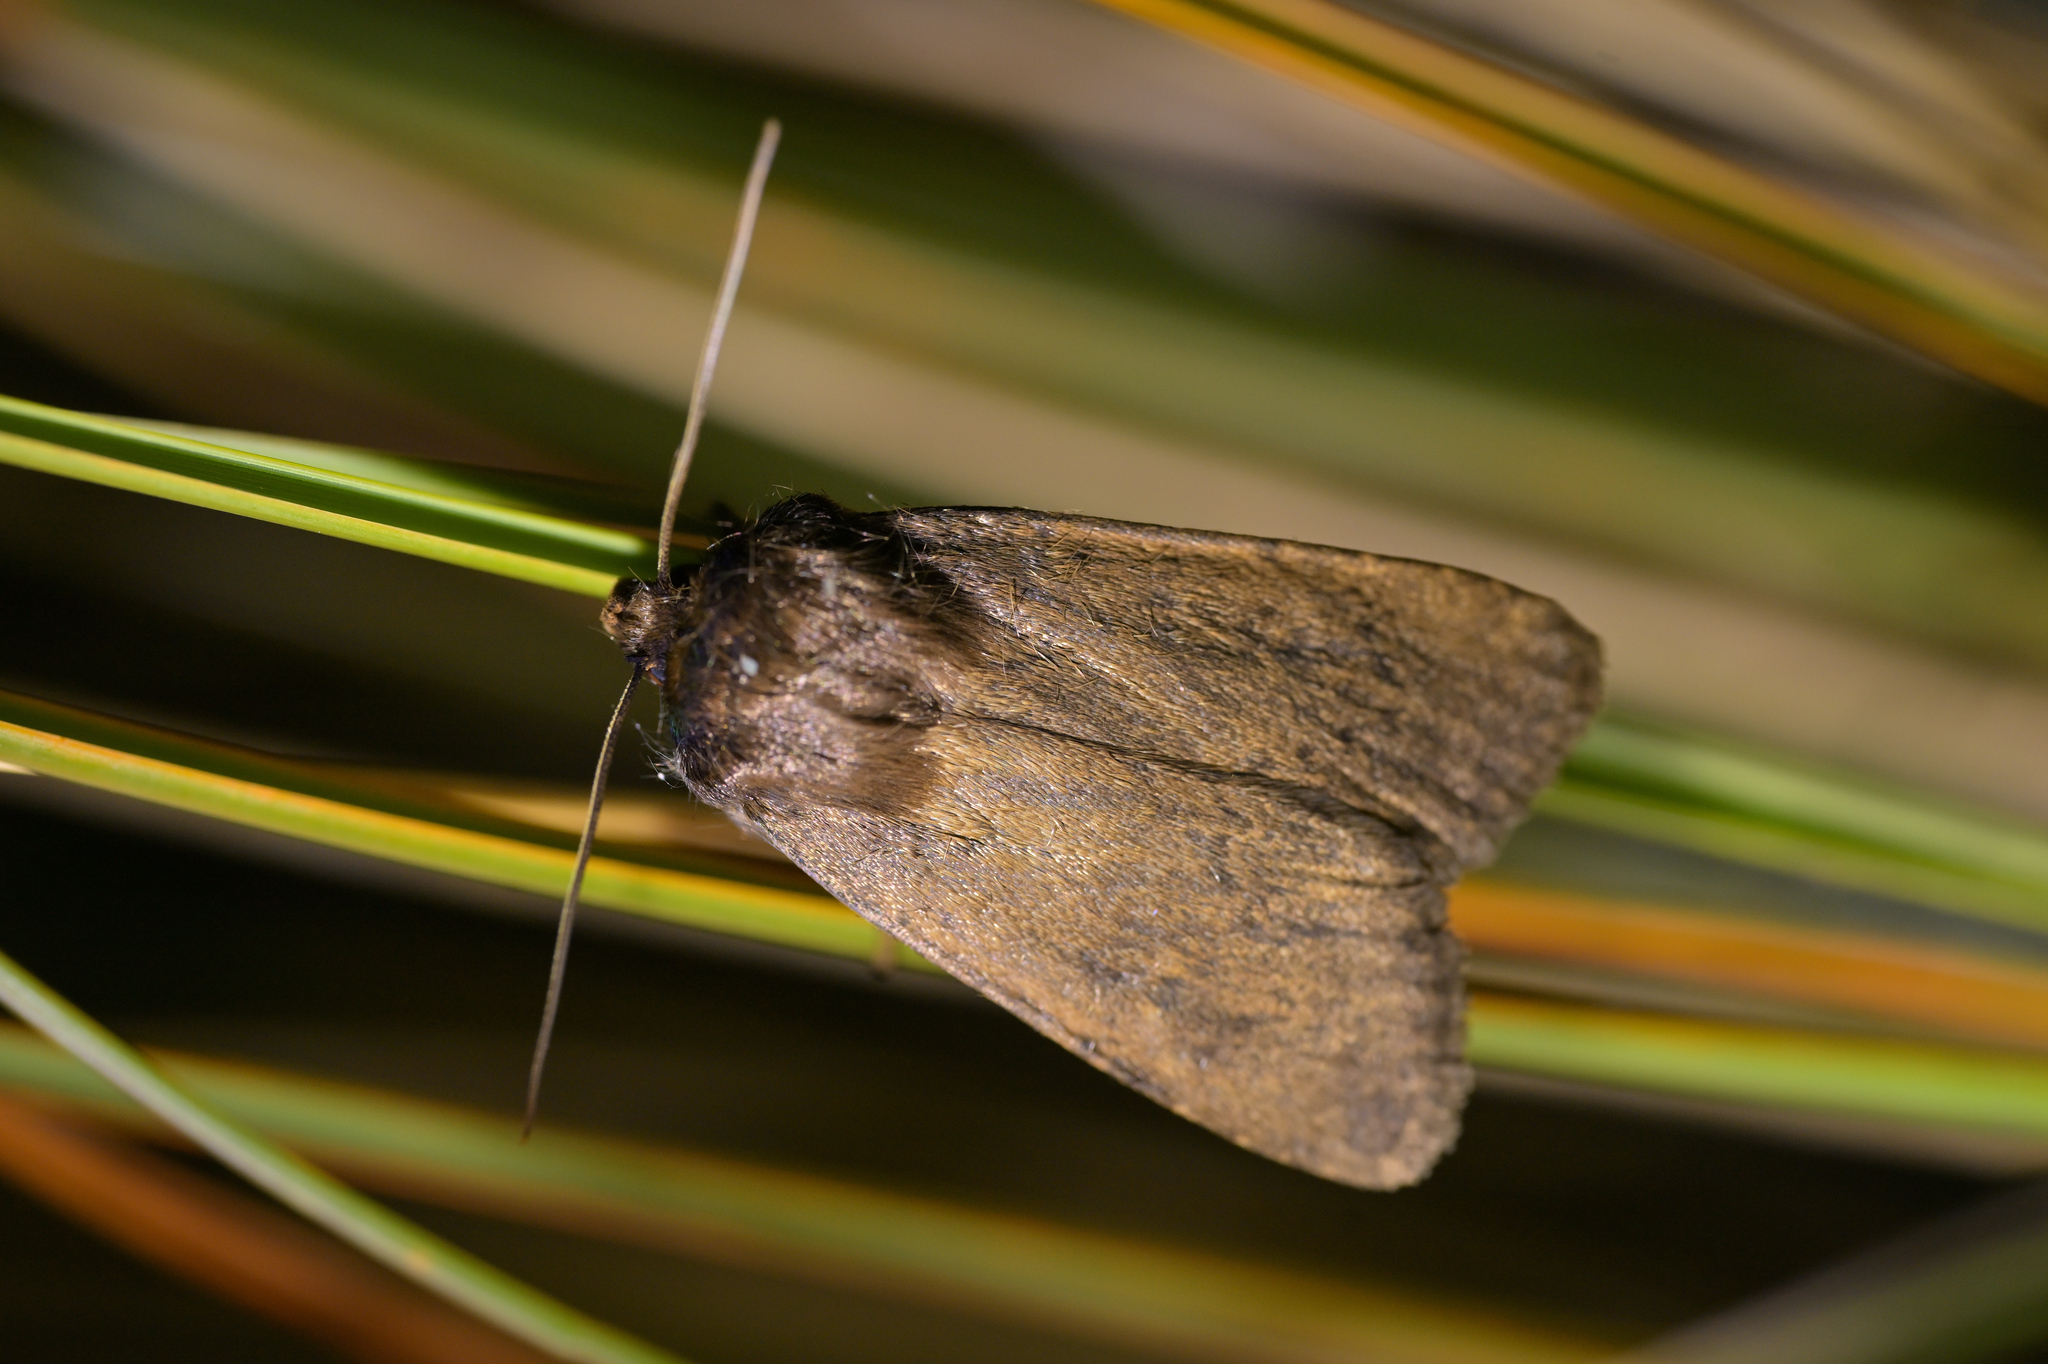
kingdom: Animalia
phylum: Arthropoda
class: Insecta
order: Lepidoptera
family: Noctuidae
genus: Bityla
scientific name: Bityla defigurata
